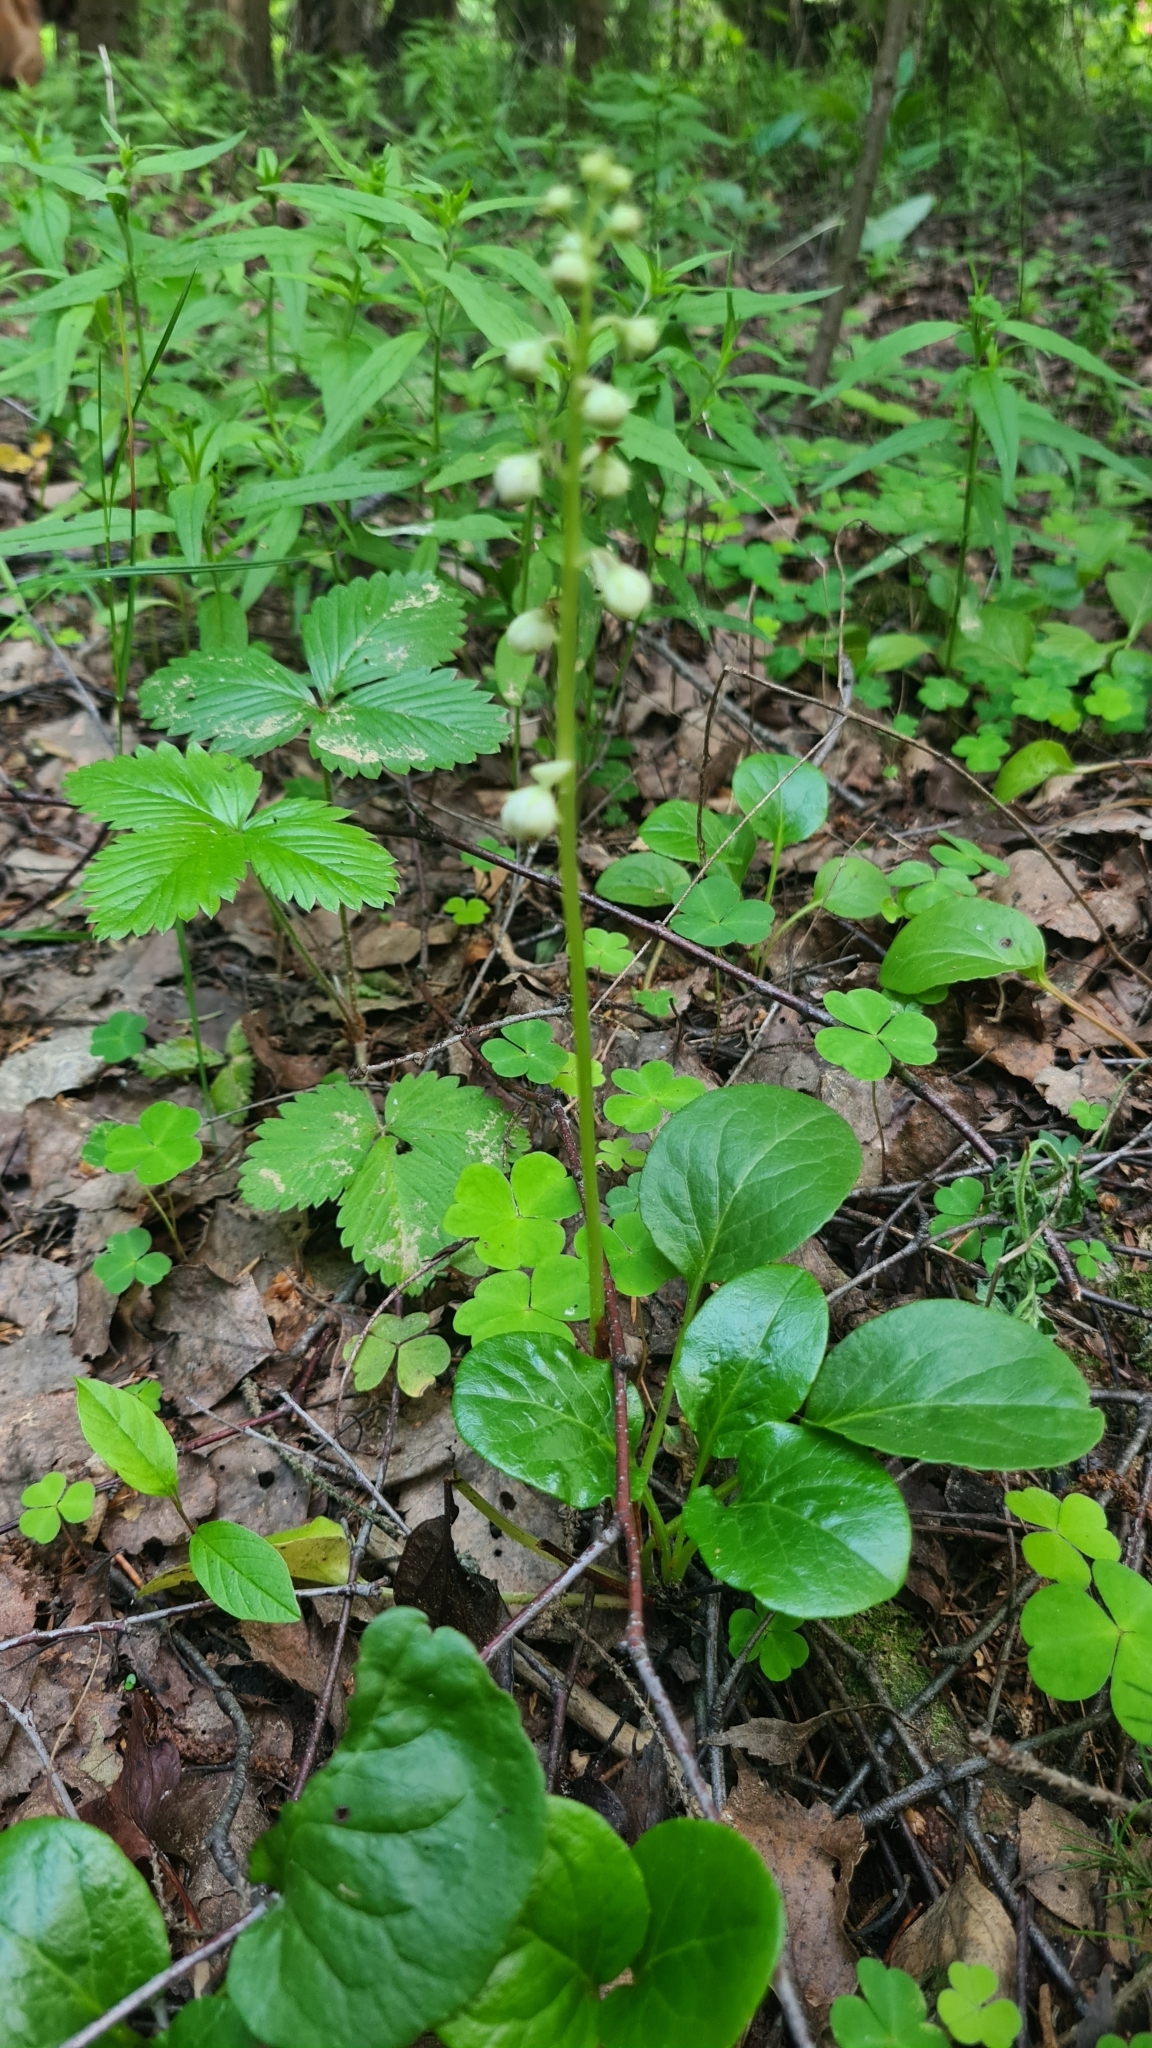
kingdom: Plantae
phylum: Tracheophyta
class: Magnoliopsida
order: Ericales
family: Ericaceae
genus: Pyrola
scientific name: Pyrola rotundifolia
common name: Round-leaved wintergreen
